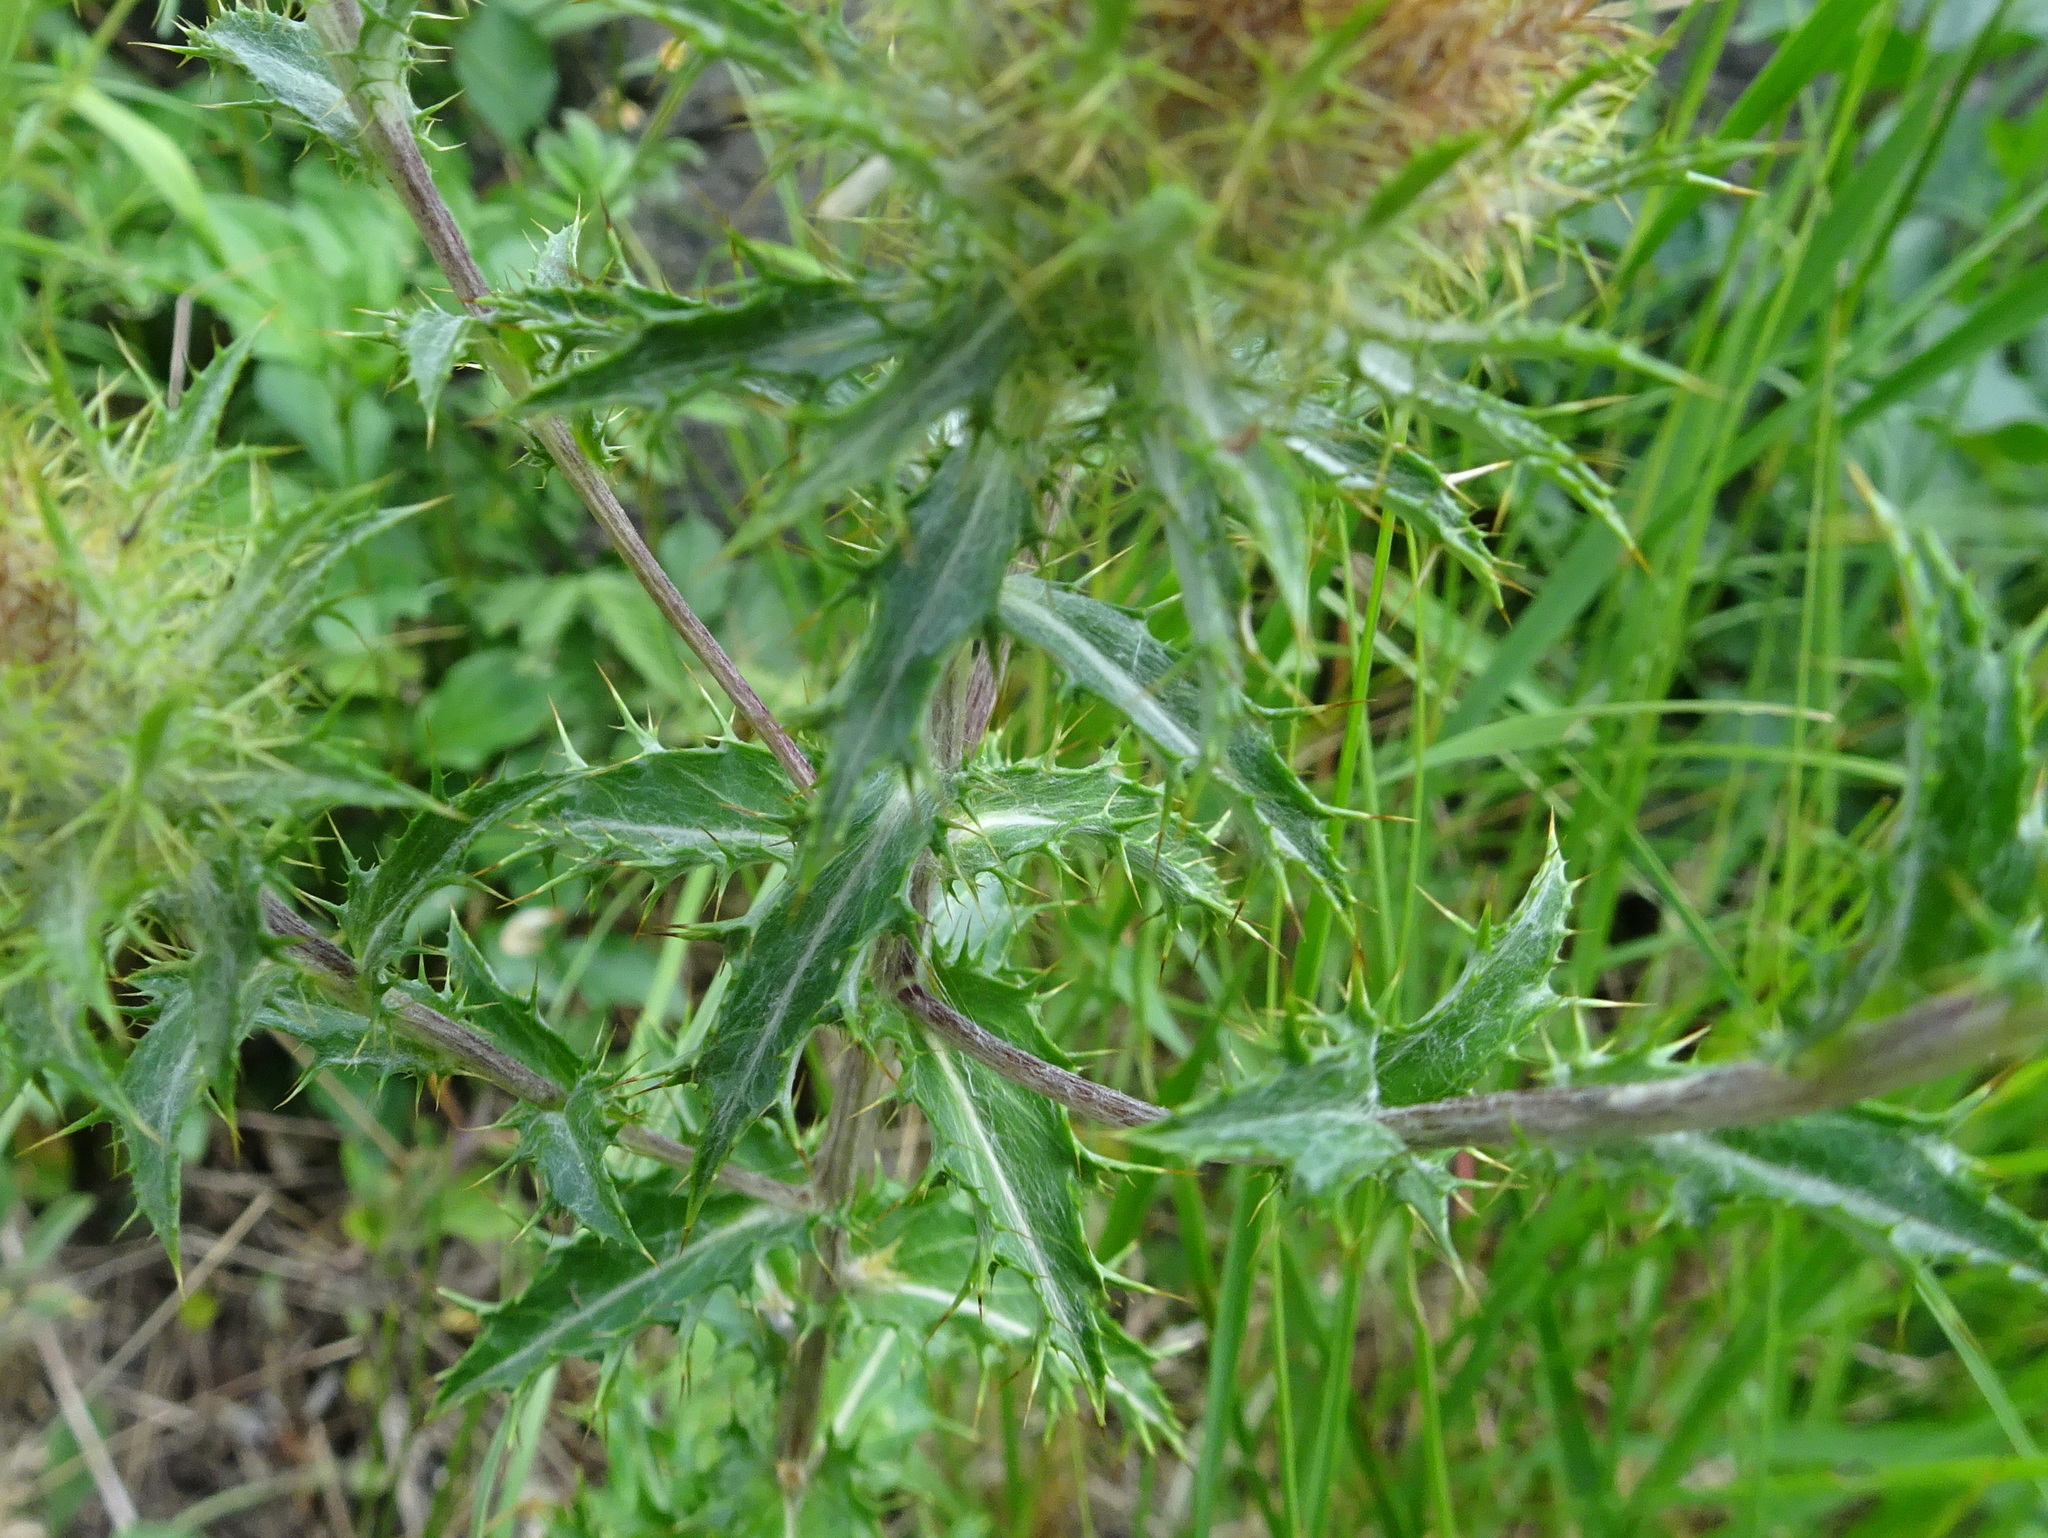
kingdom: Plantae
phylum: Tracheophyta
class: Magnoliopsida
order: Asterales
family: Asteraceae
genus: Carlina
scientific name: Carlina vulgaris
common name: Carline thistle
